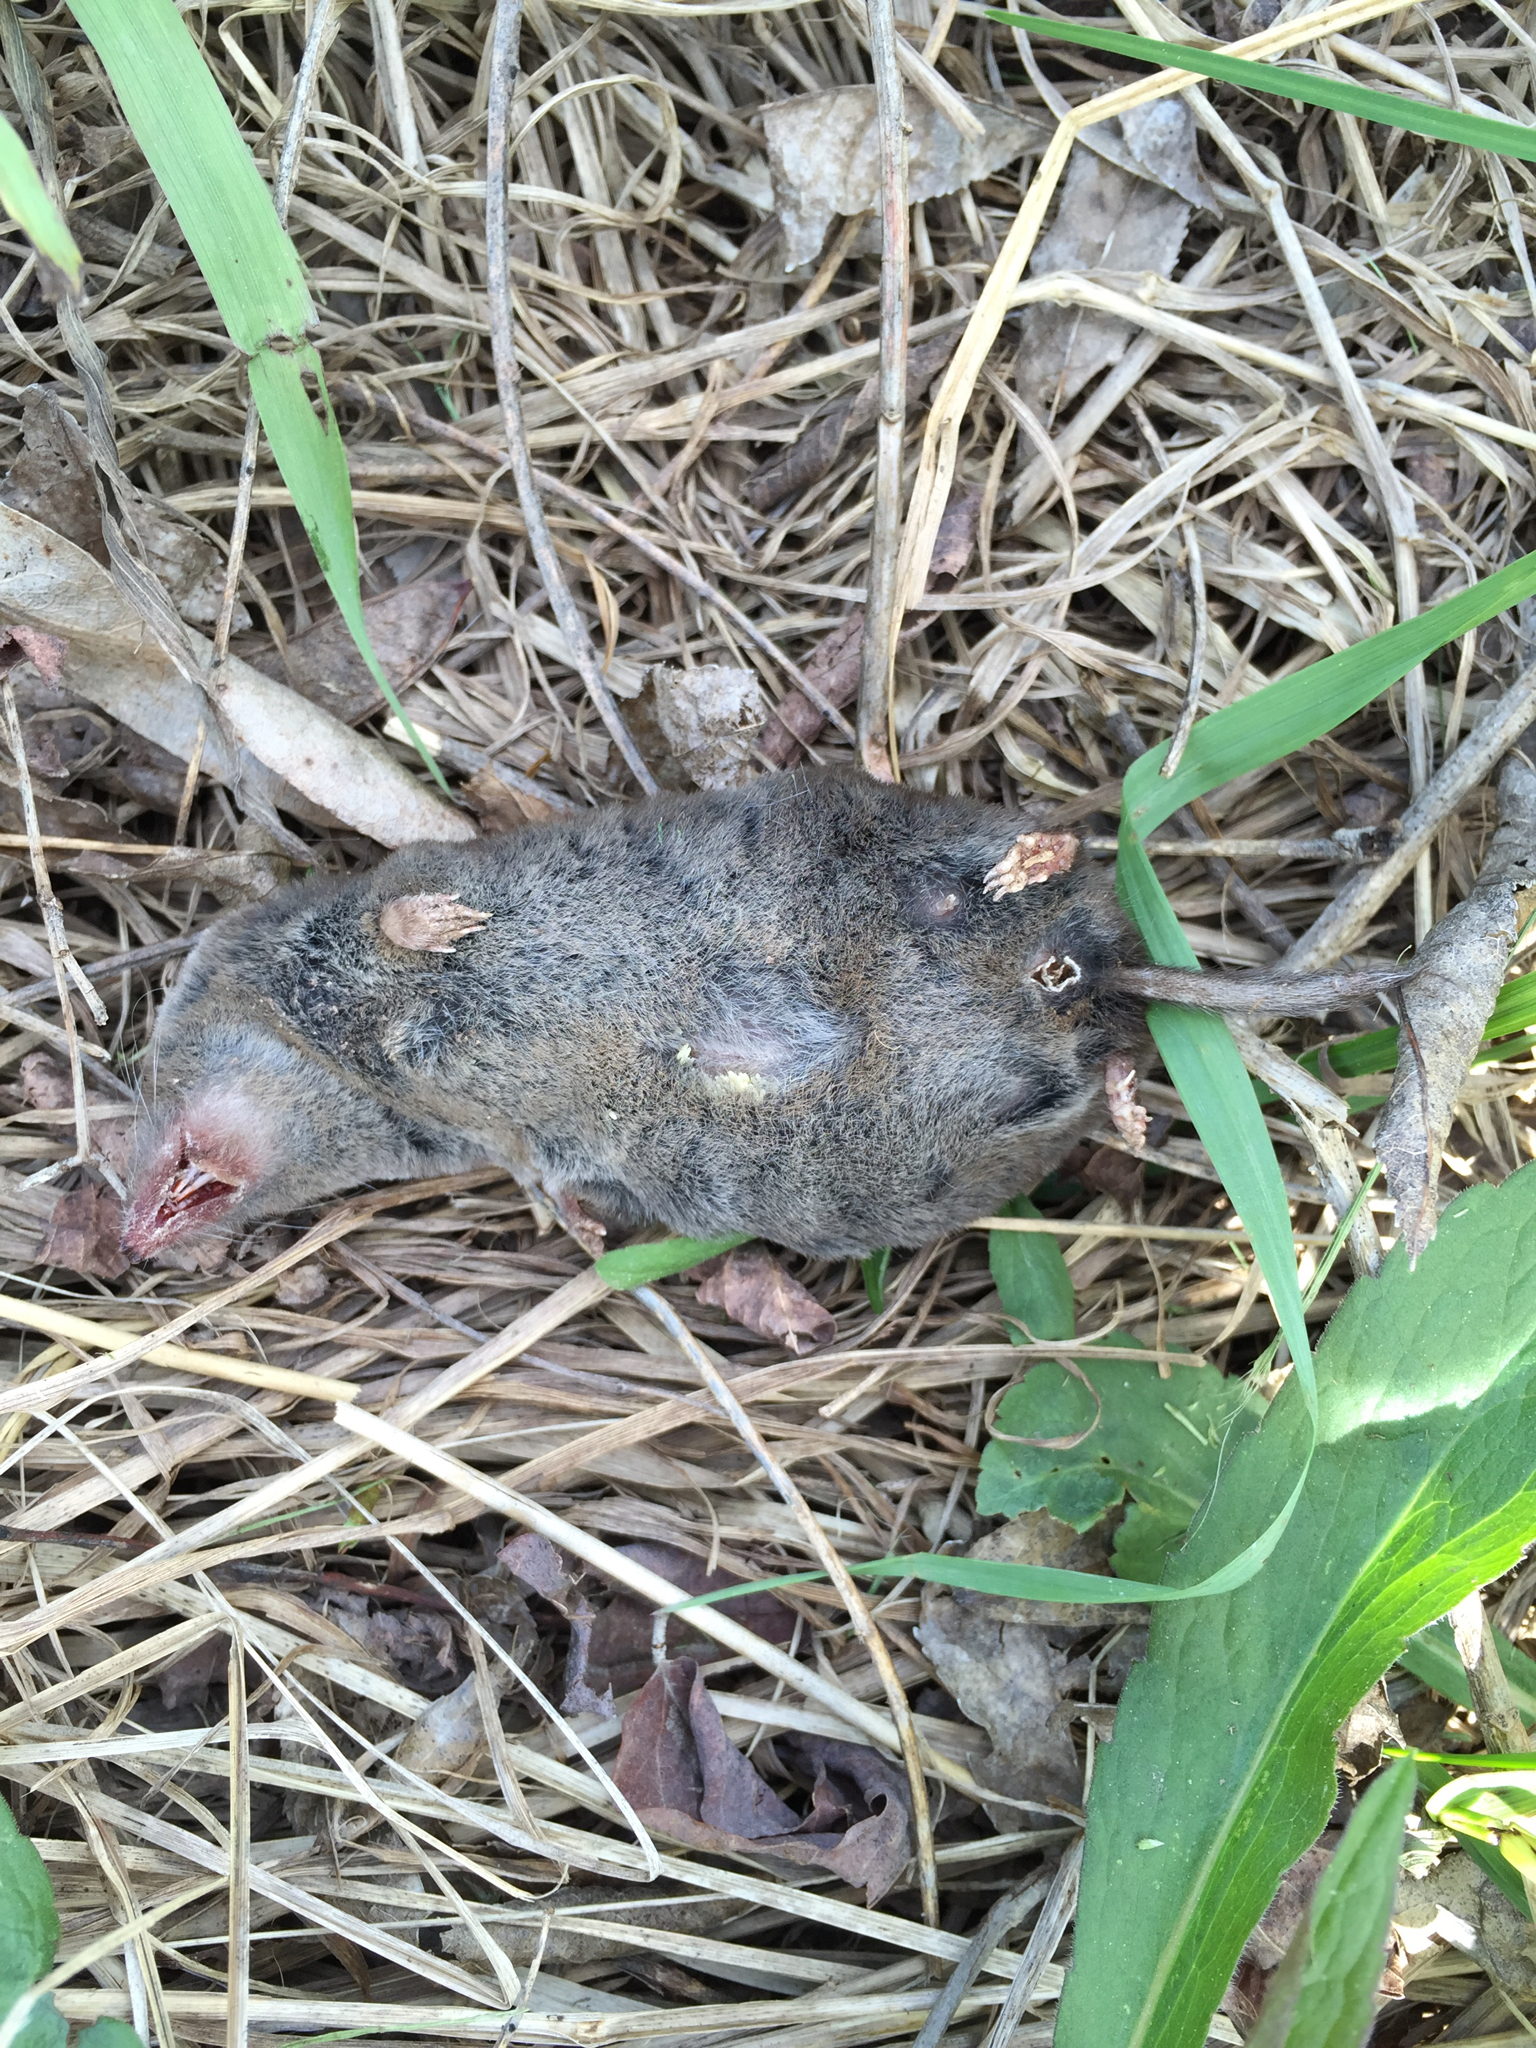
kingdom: Animalia
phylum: Chordata
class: Mammalia
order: Soricomorpha
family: Soricidae
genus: Blarina
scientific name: Blarina brevicauda
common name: Northern short-tailed shrew
